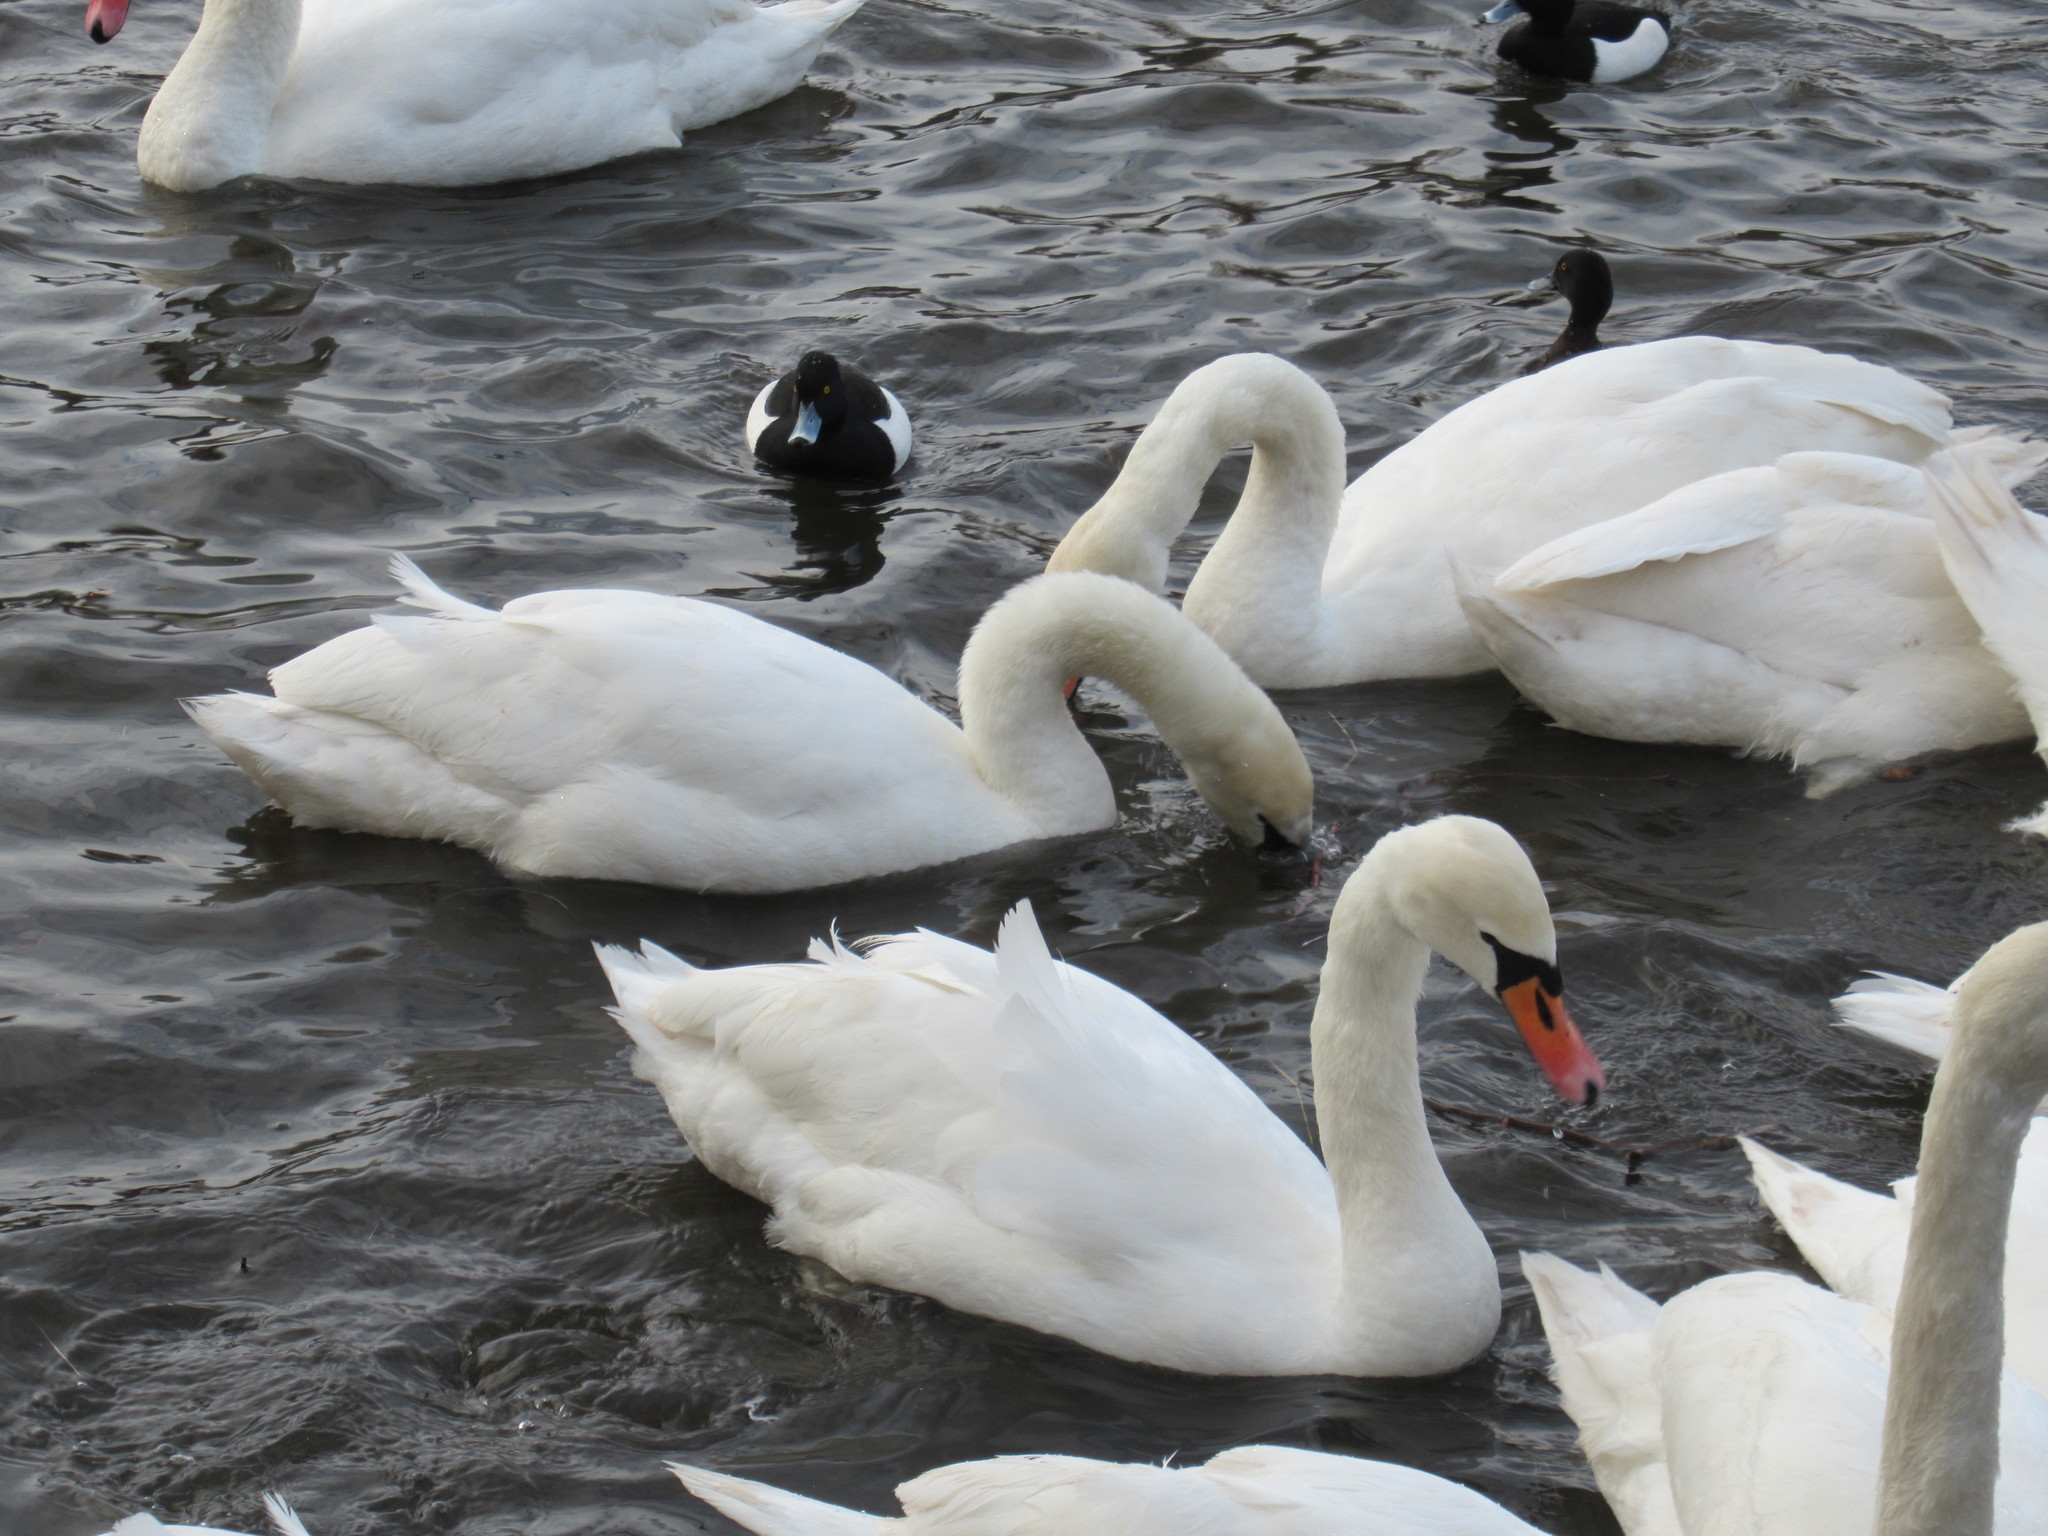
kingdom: Animalia
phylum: Chordata
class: Aves
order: Anseriformes
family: Anatidae
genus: Cygnus
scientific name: Cygnus olor
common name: Mute swan
